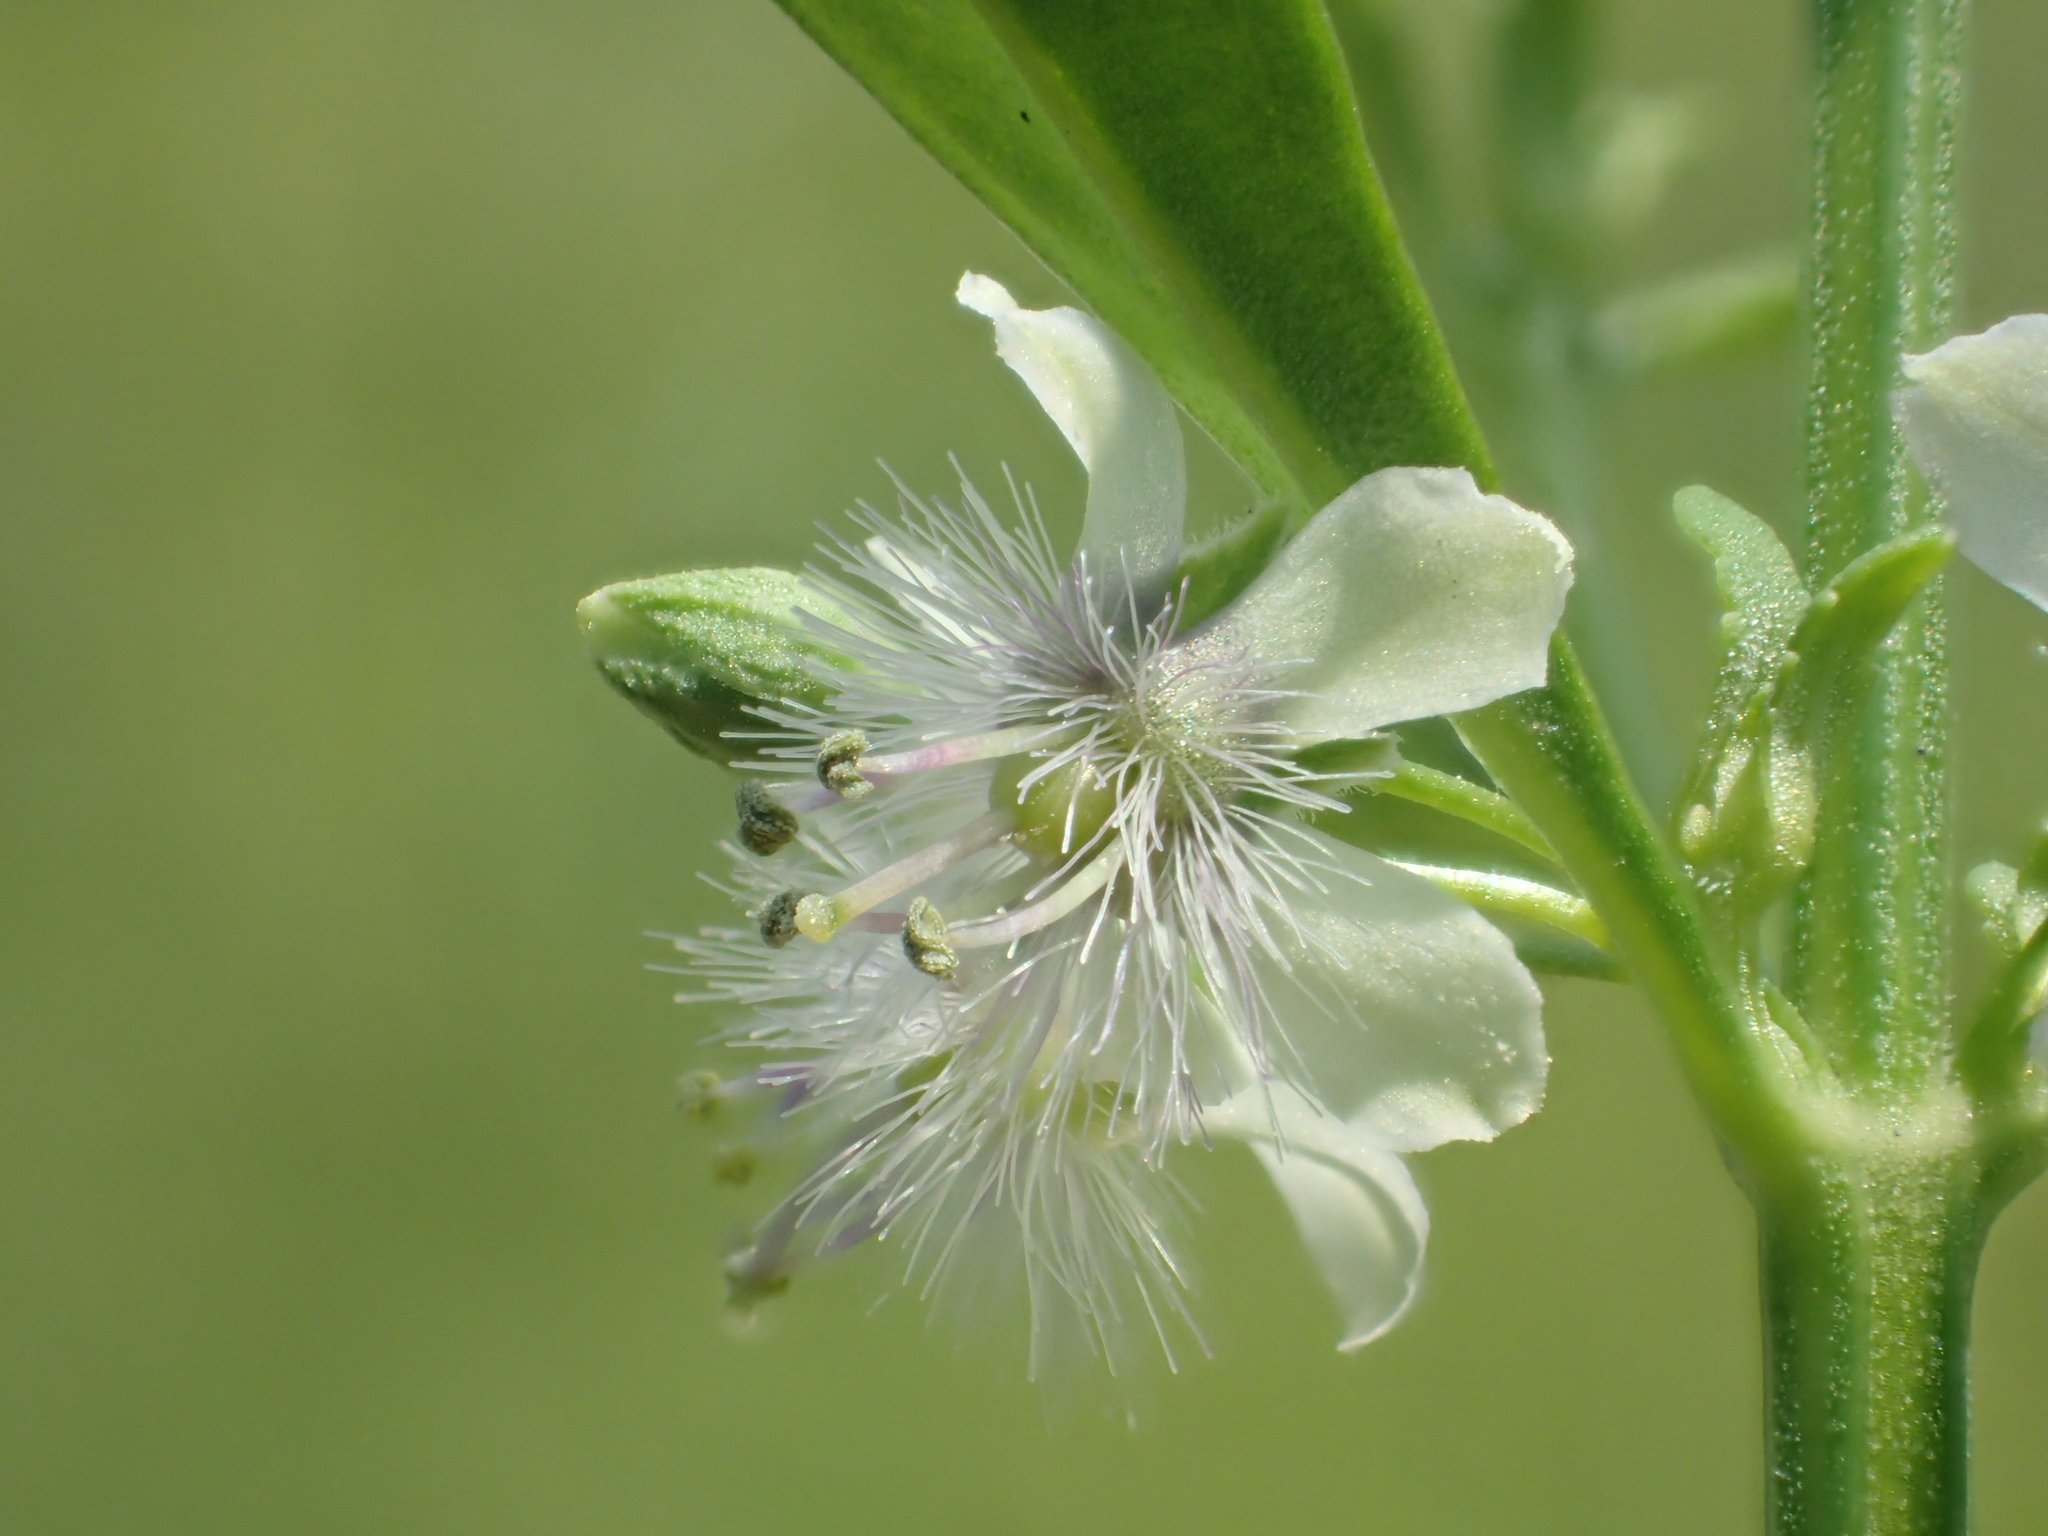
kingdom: Plantae
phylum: Tracheophyta
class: Magnoliopsida
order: Lamiales
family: Plantaginaceae
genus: Scoparia
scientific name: Scoparia dulcis
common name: Scoparia-weed
